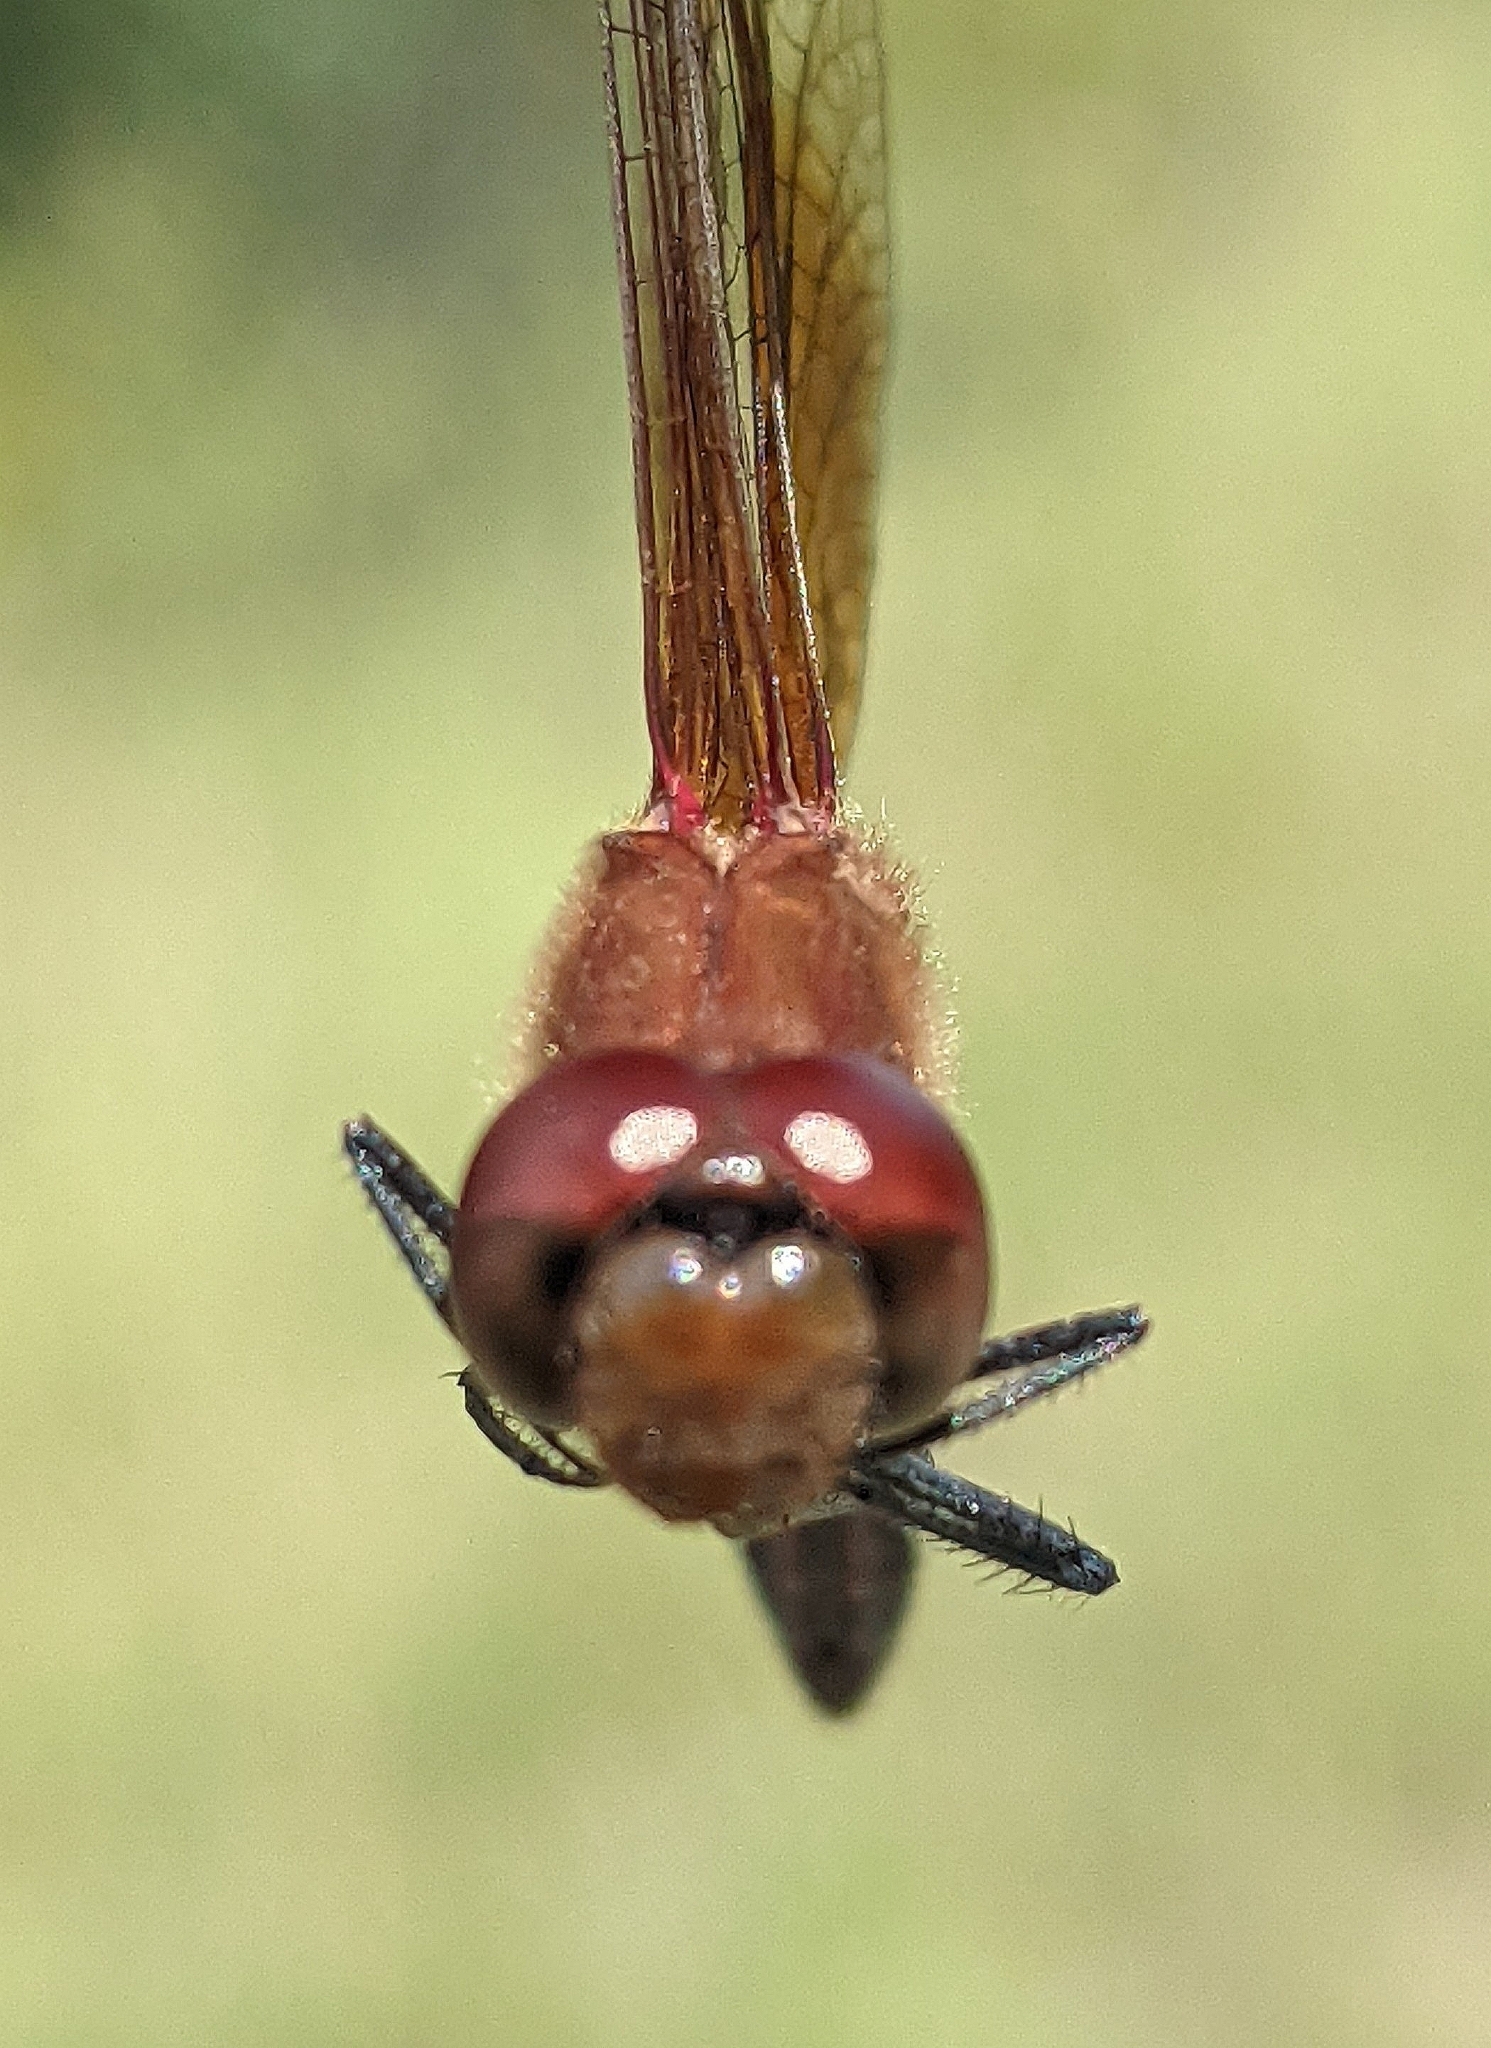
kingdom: Animalia
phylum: Arthropoda
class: Insecta
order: Odonata
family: Libellulidae
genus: Sympetrum
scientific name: Sympetrum semicinctum
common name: Band-winged meadowhawk
